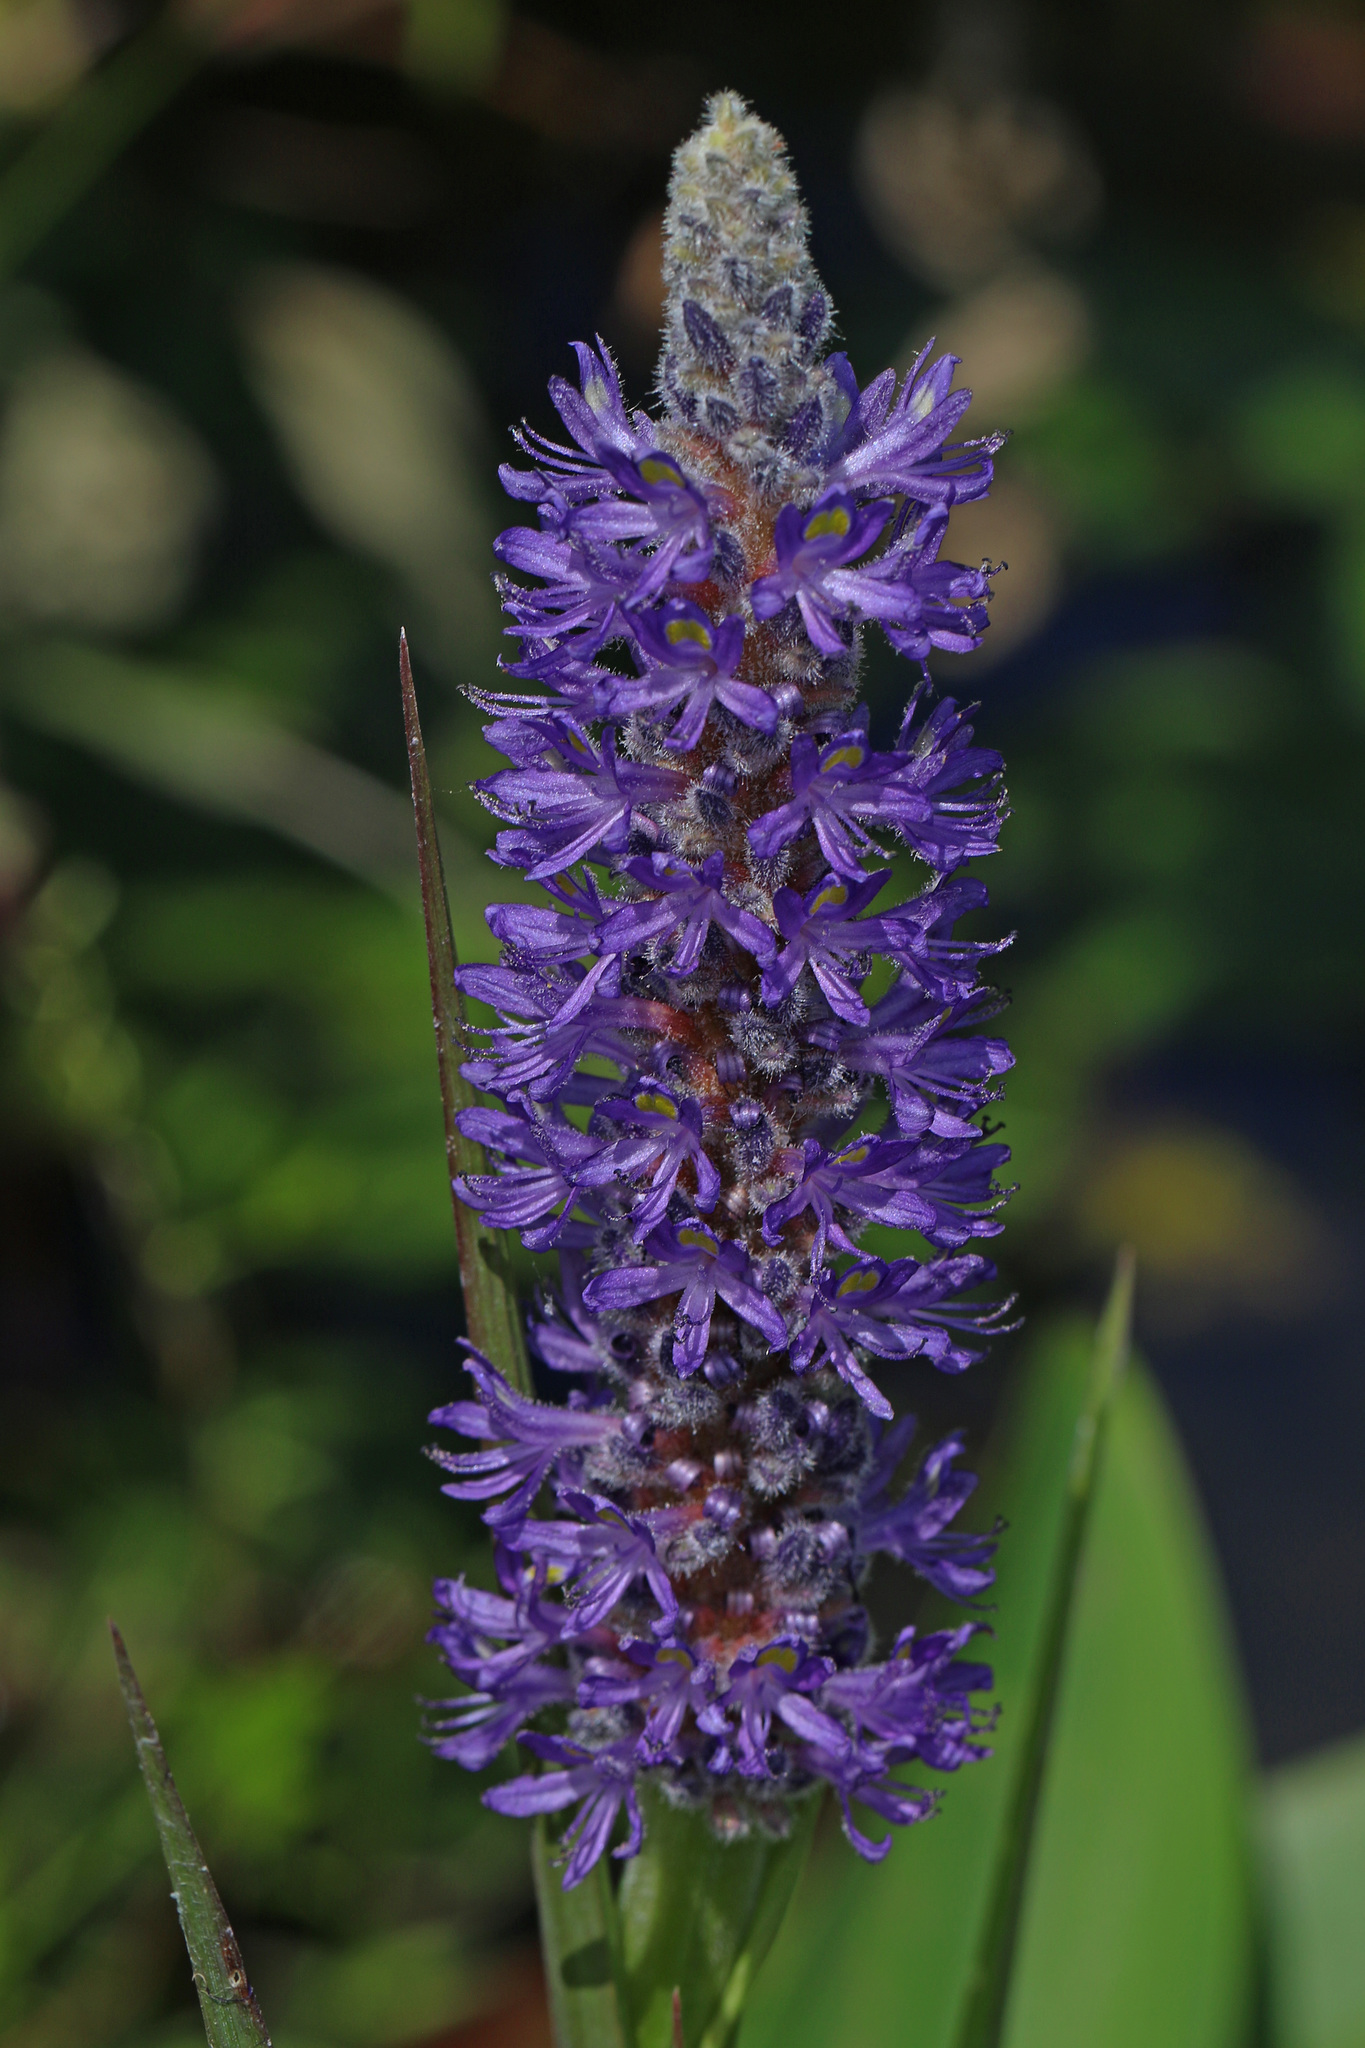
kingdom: Plantae
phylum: Tracheophyta
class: Liliopsida
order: Commelinales
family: Pontederiaceae
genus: Pontederia
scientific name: Pontederia cordata
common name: Pickerelweed
